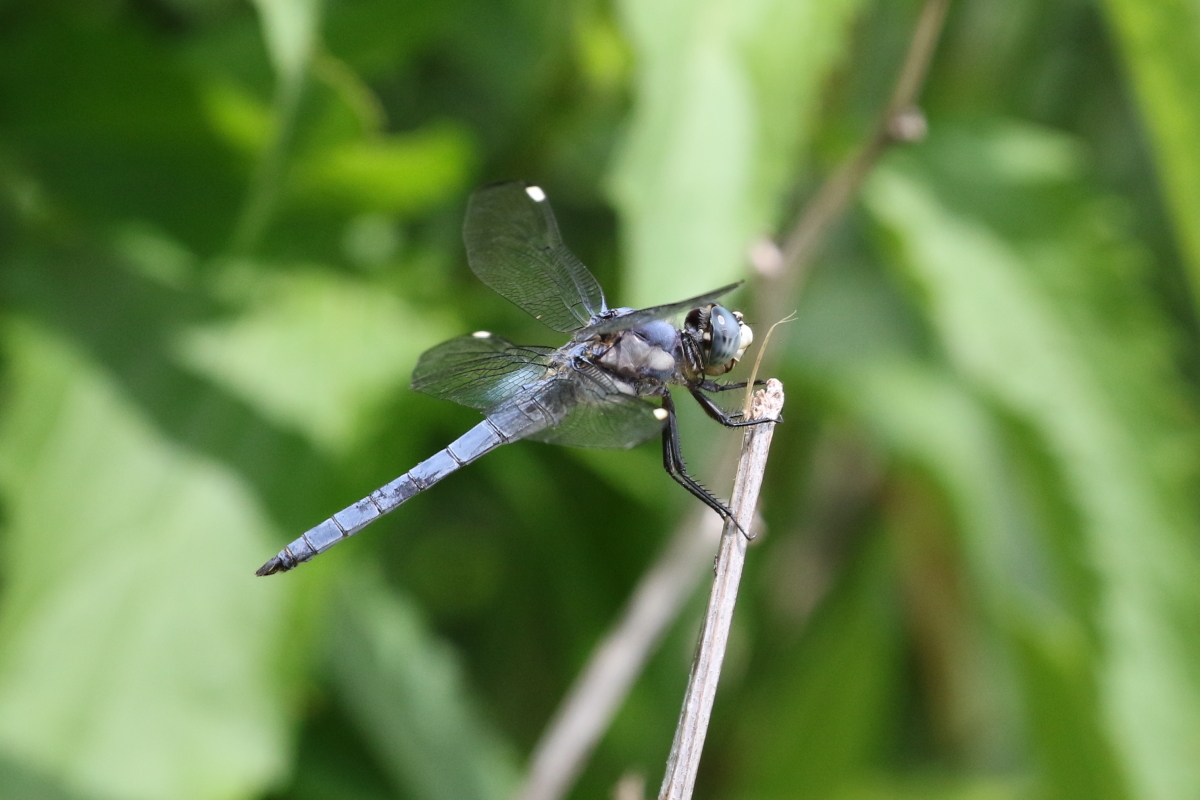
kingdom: Animalia
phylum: Arthropoda
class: Insecta
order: Odonata
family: Libellulidae
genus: Libellula
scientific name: Libellula comanche
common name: Comanche skimmer
